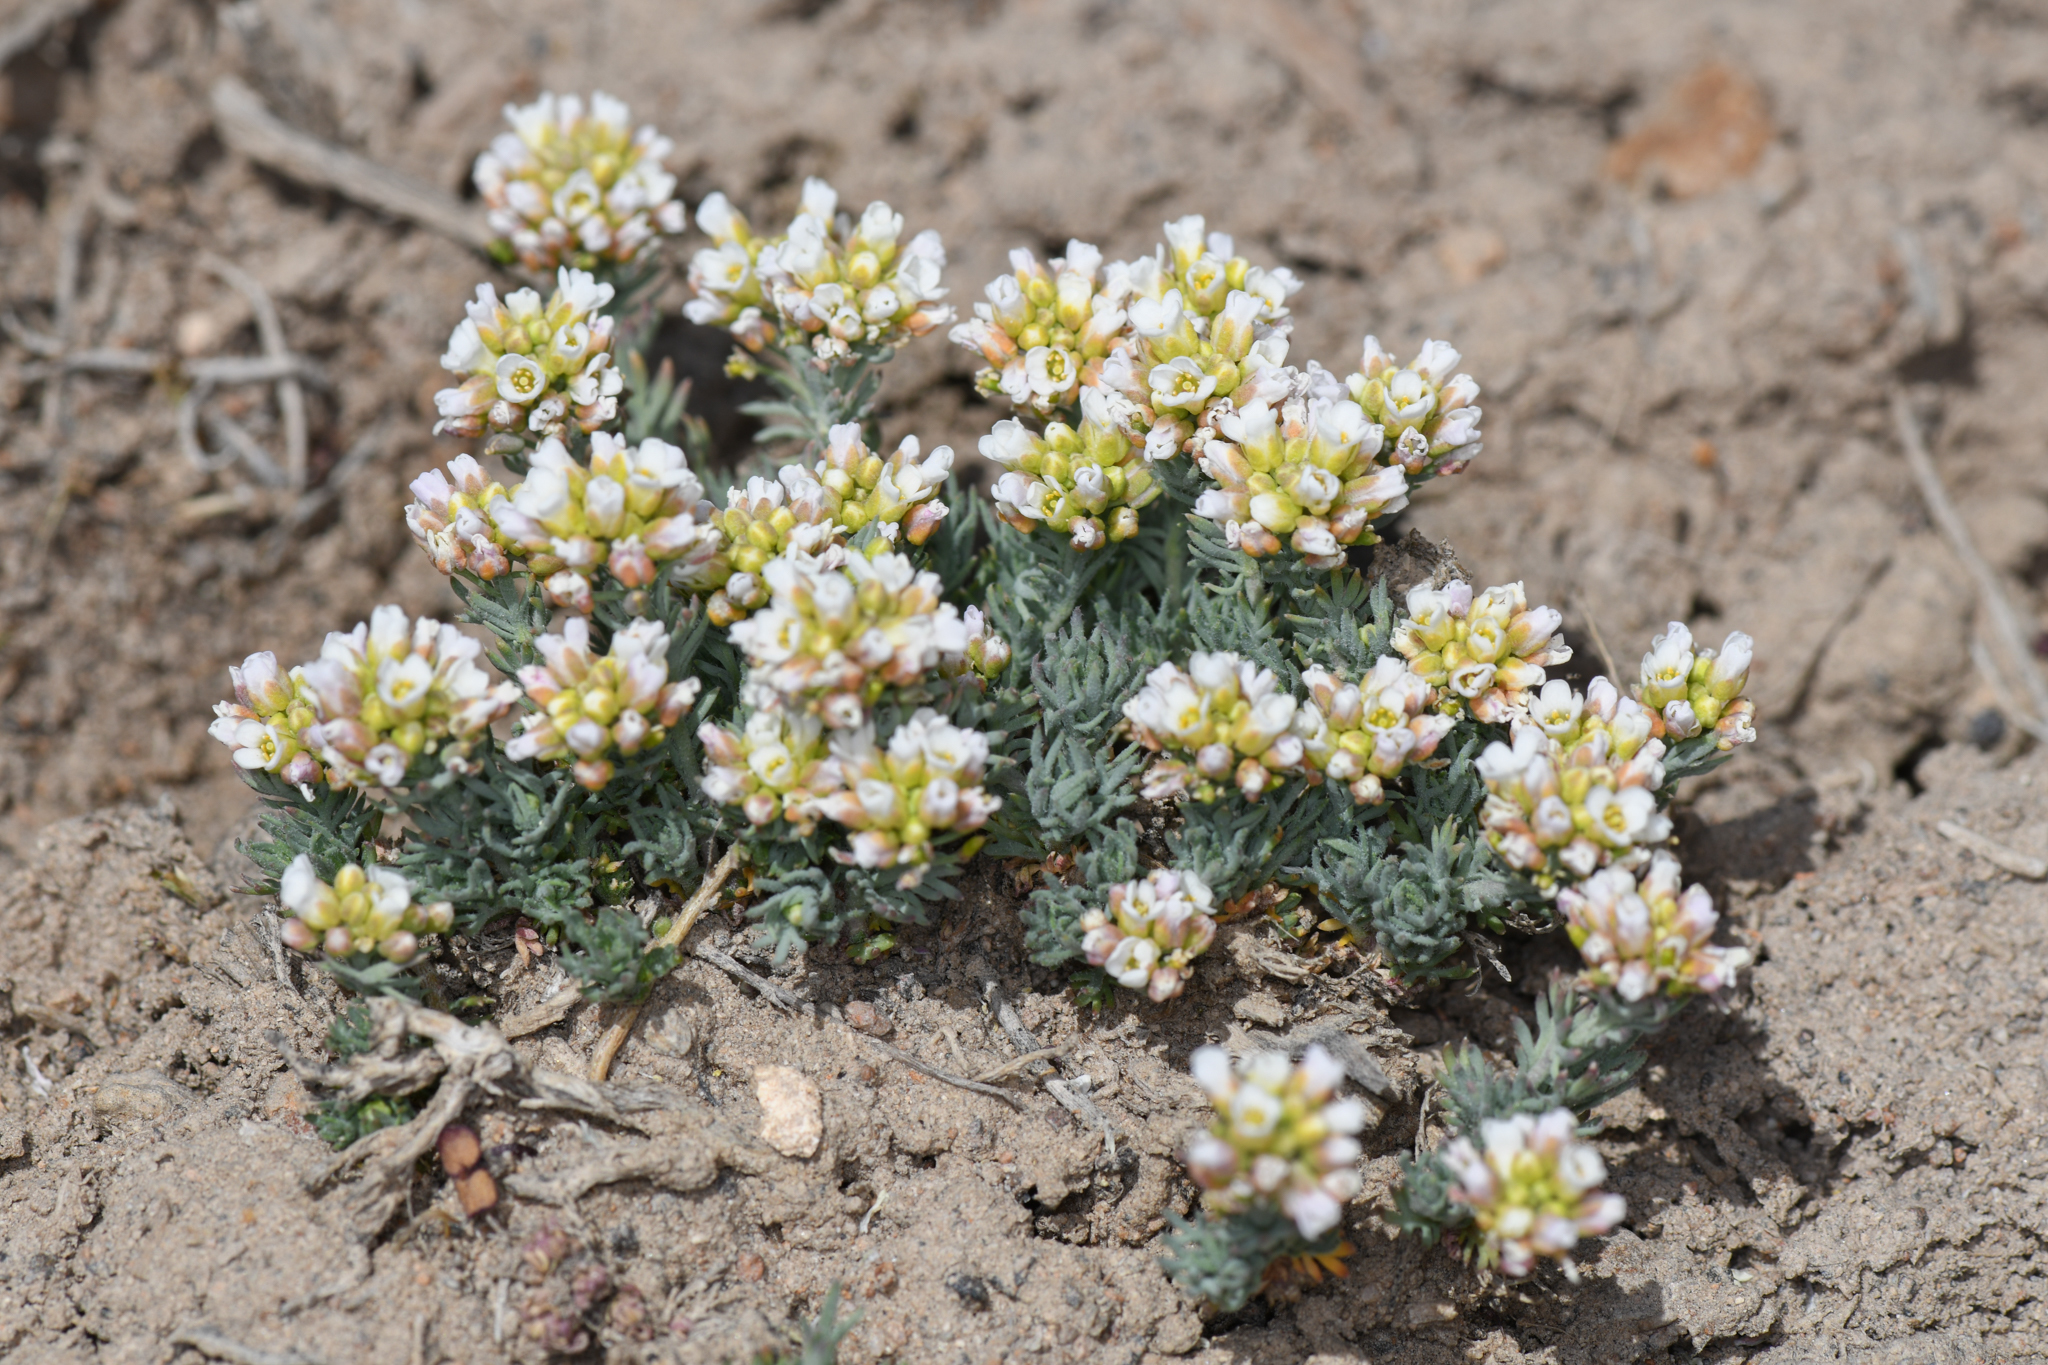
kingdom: Plantae
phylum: Tracheophyta
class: Magnoliopsida
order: Brassicales
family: Brassicaceae
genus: Polyctenium
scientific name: Polyctenium fremontii
